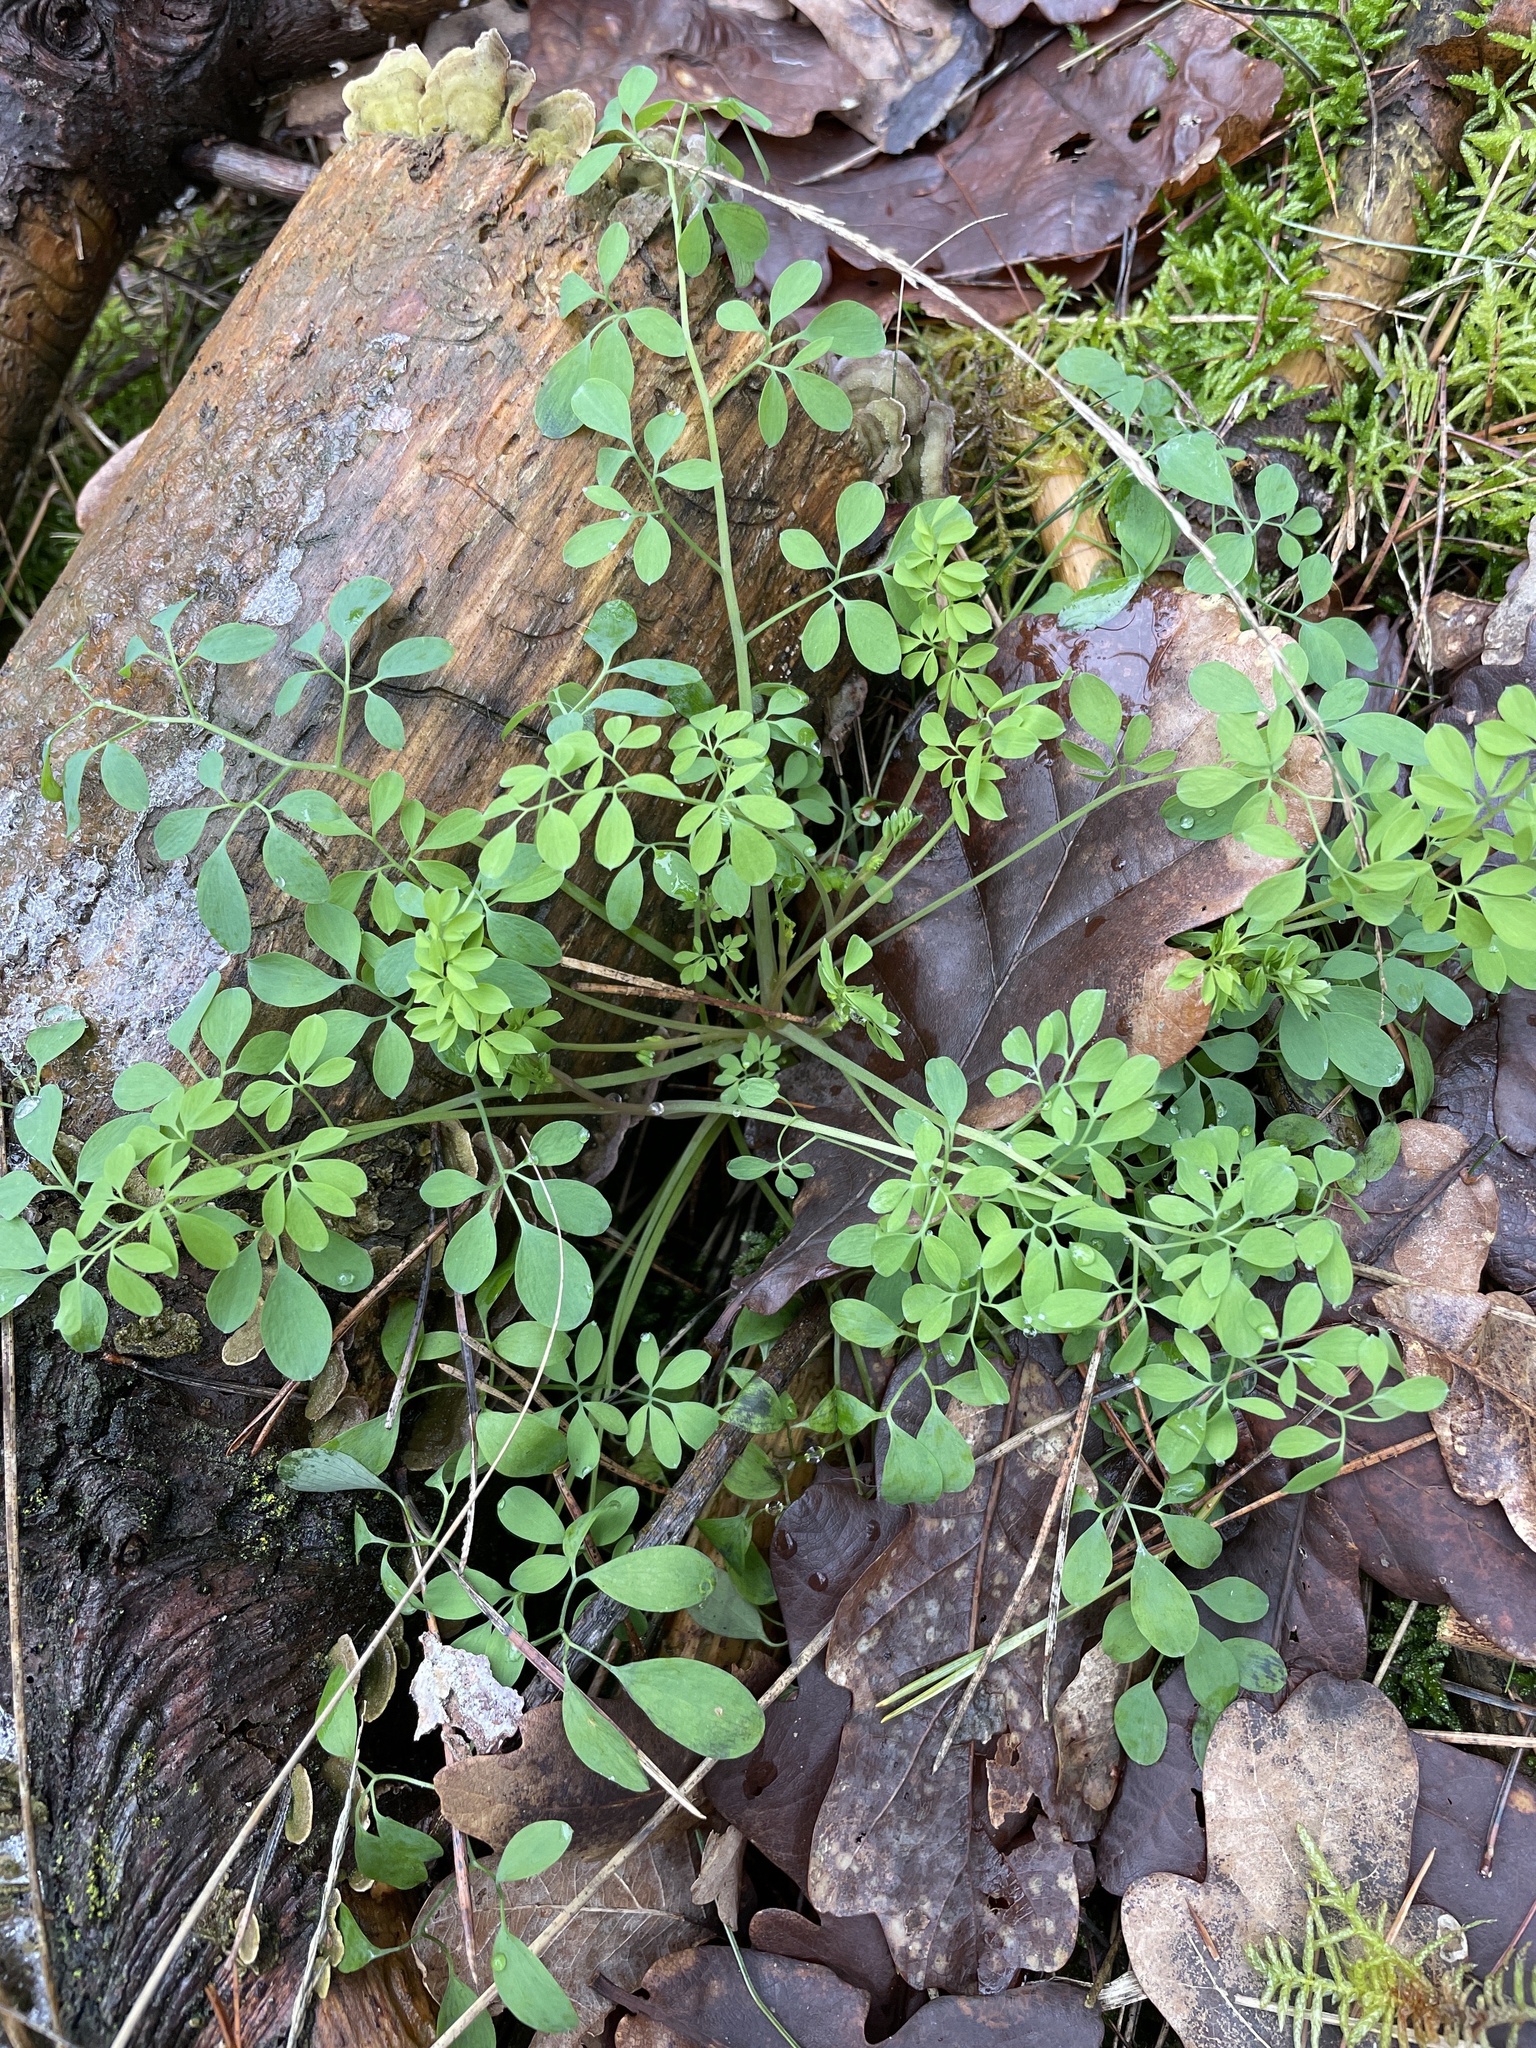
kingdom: Plantae
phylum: Tracheophyta
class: Magnoliopsida
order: Ranunculales
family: Papaveraceae
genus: Ceratocapnos
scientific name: Ceratocapnos claviculata
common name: Climbing corydalis
